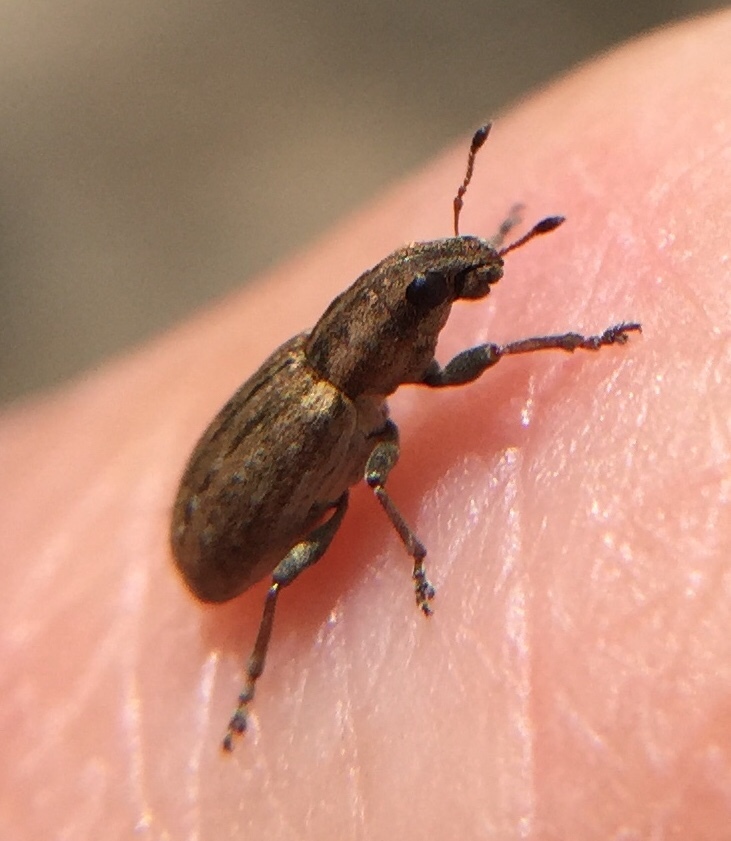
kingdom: Animalia
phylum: Arthropoda
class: Insecta
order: Coleoptera
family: Curculionidae
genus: Sitona
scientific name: Sitona obsoletus
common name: Weevil
